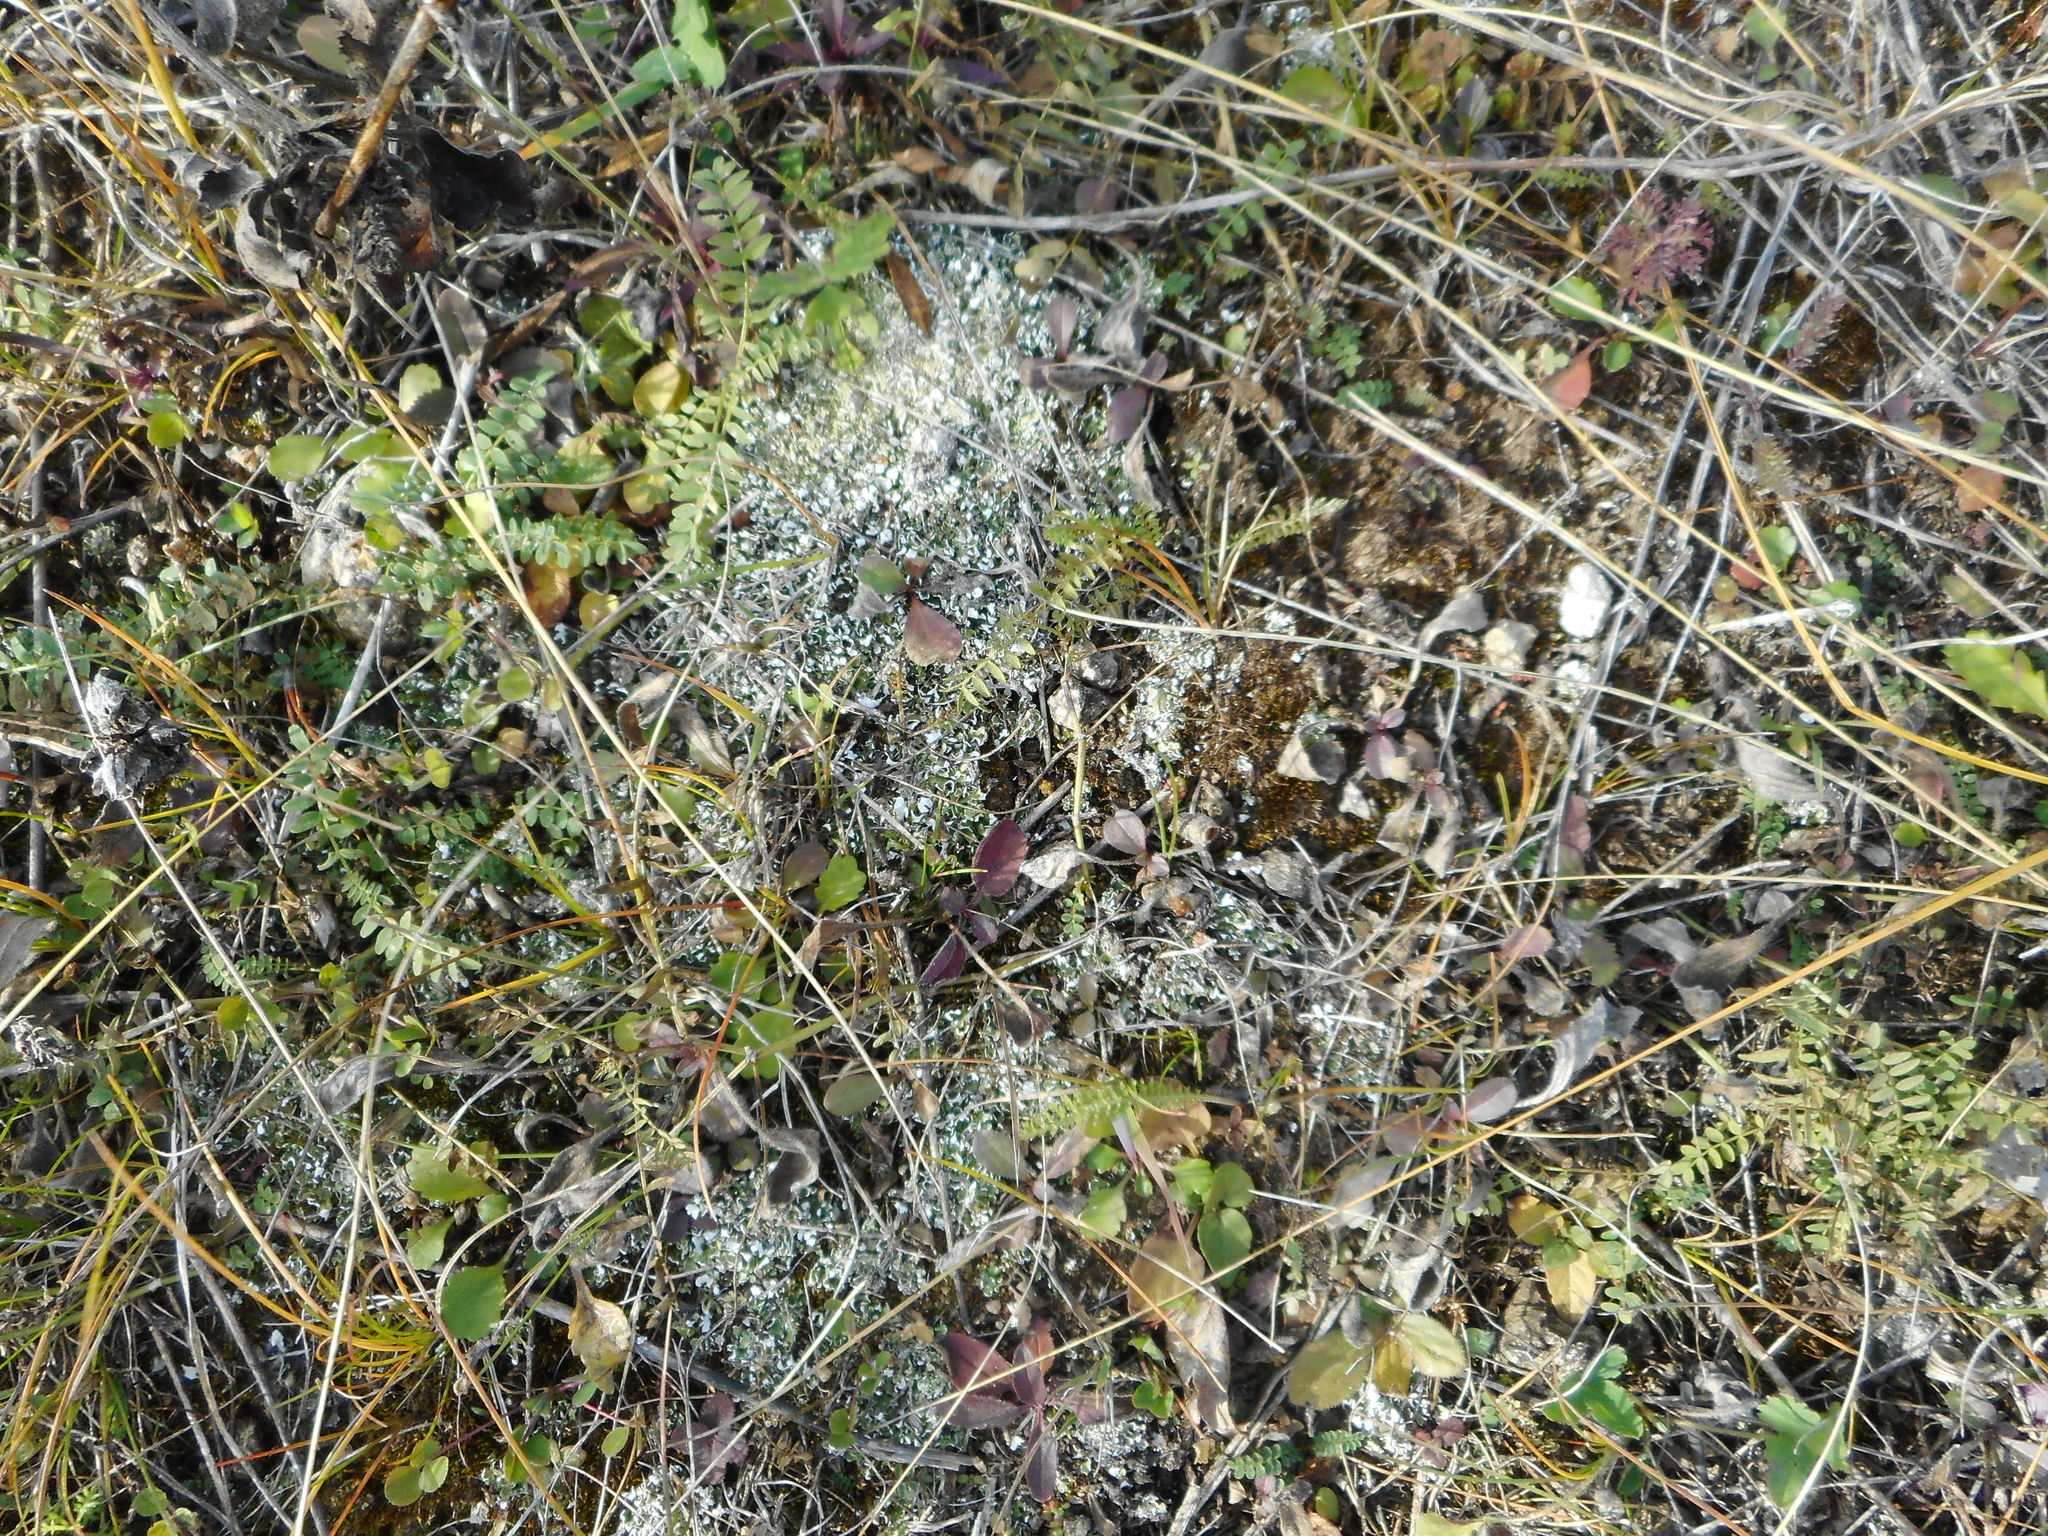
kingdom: Plantae
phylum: Tracheophyta
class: Magnoliopsida
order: Fabales
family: Fabaceae
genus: Oxytropis
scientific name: Oxytropis pilosa
